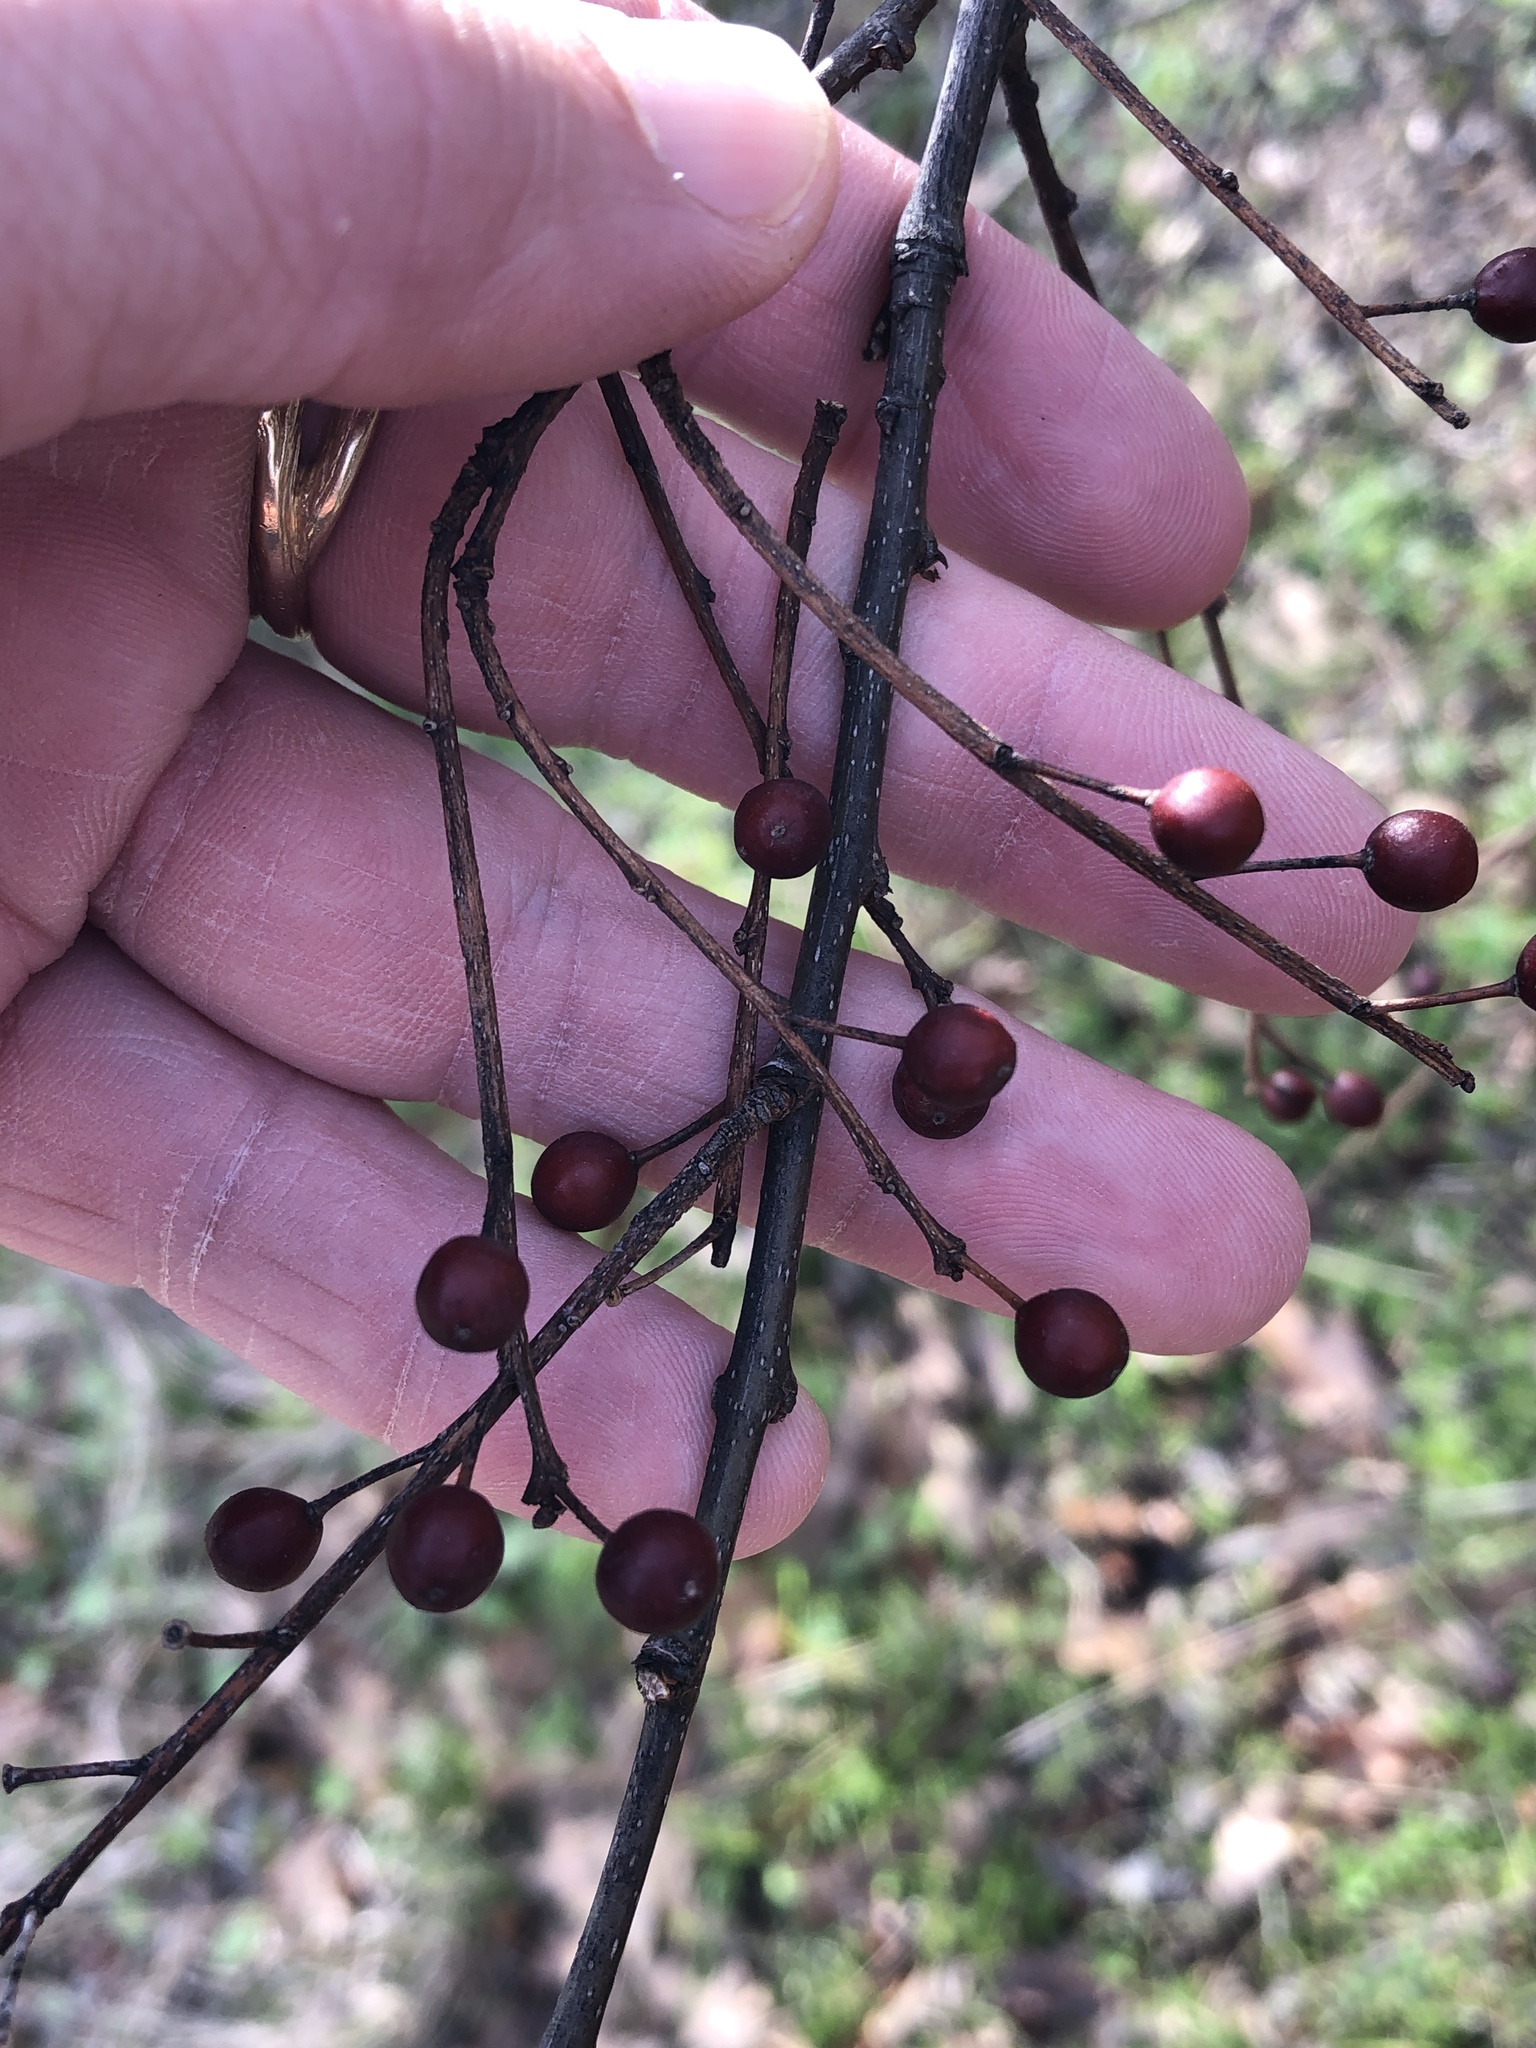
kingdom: Plantae
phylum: Tracheophyta
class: Magnoliopsida
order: Rosales
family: Cannabaceae
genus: Celtis
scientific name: Celtis laevigata
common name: Sugarberry
